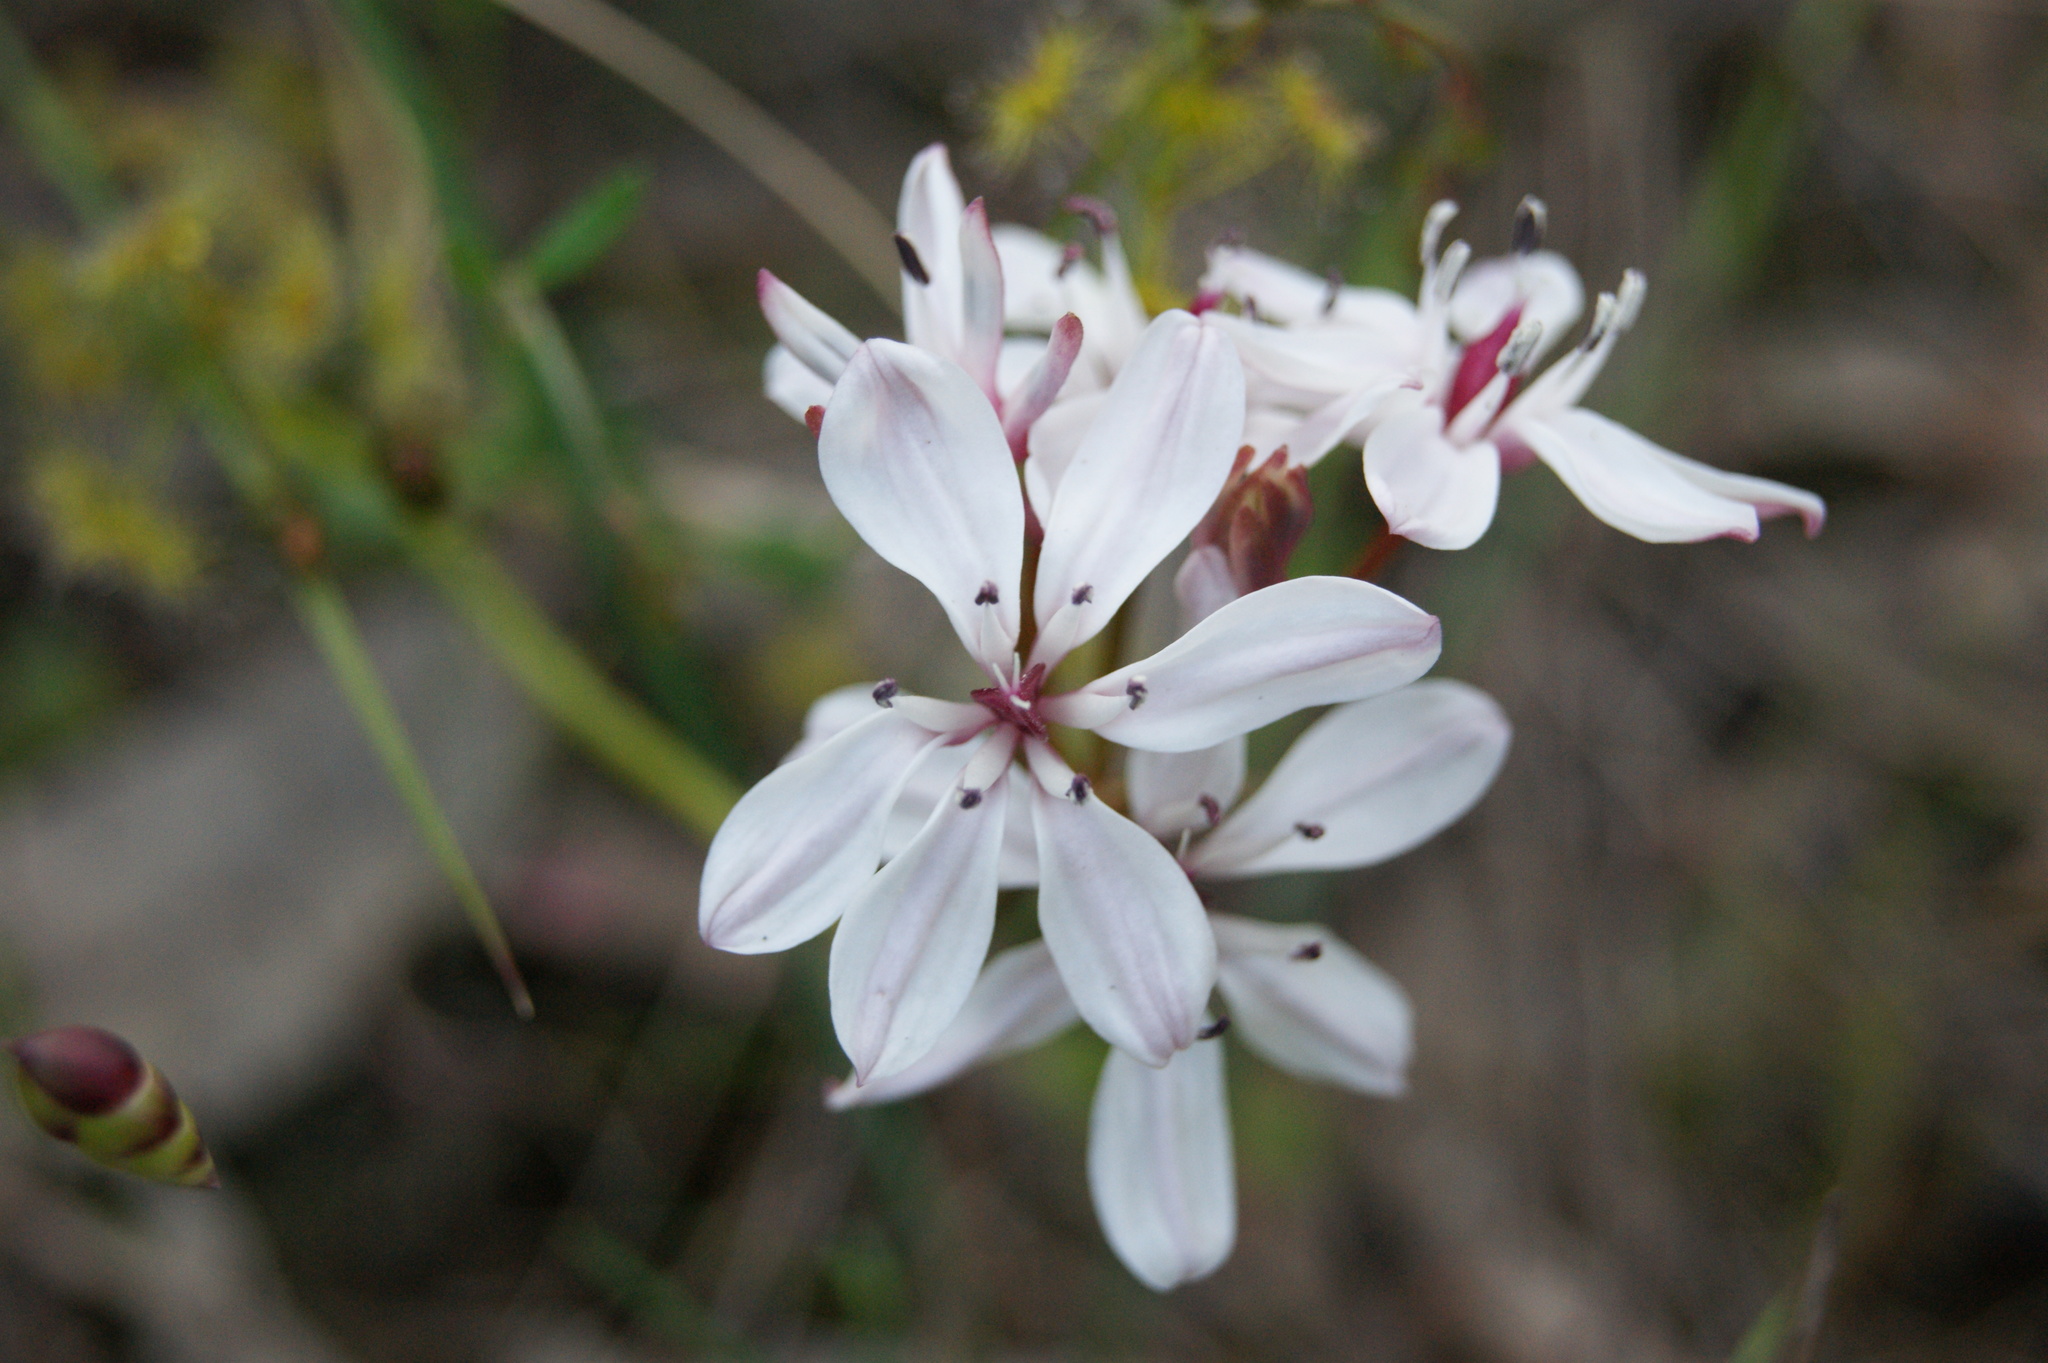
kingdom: Plantae
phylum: Tracheophyta
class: Liliopsida
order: Liliales
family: Colchicaceae
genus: Burchardia
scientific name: Burchardia umbellata
